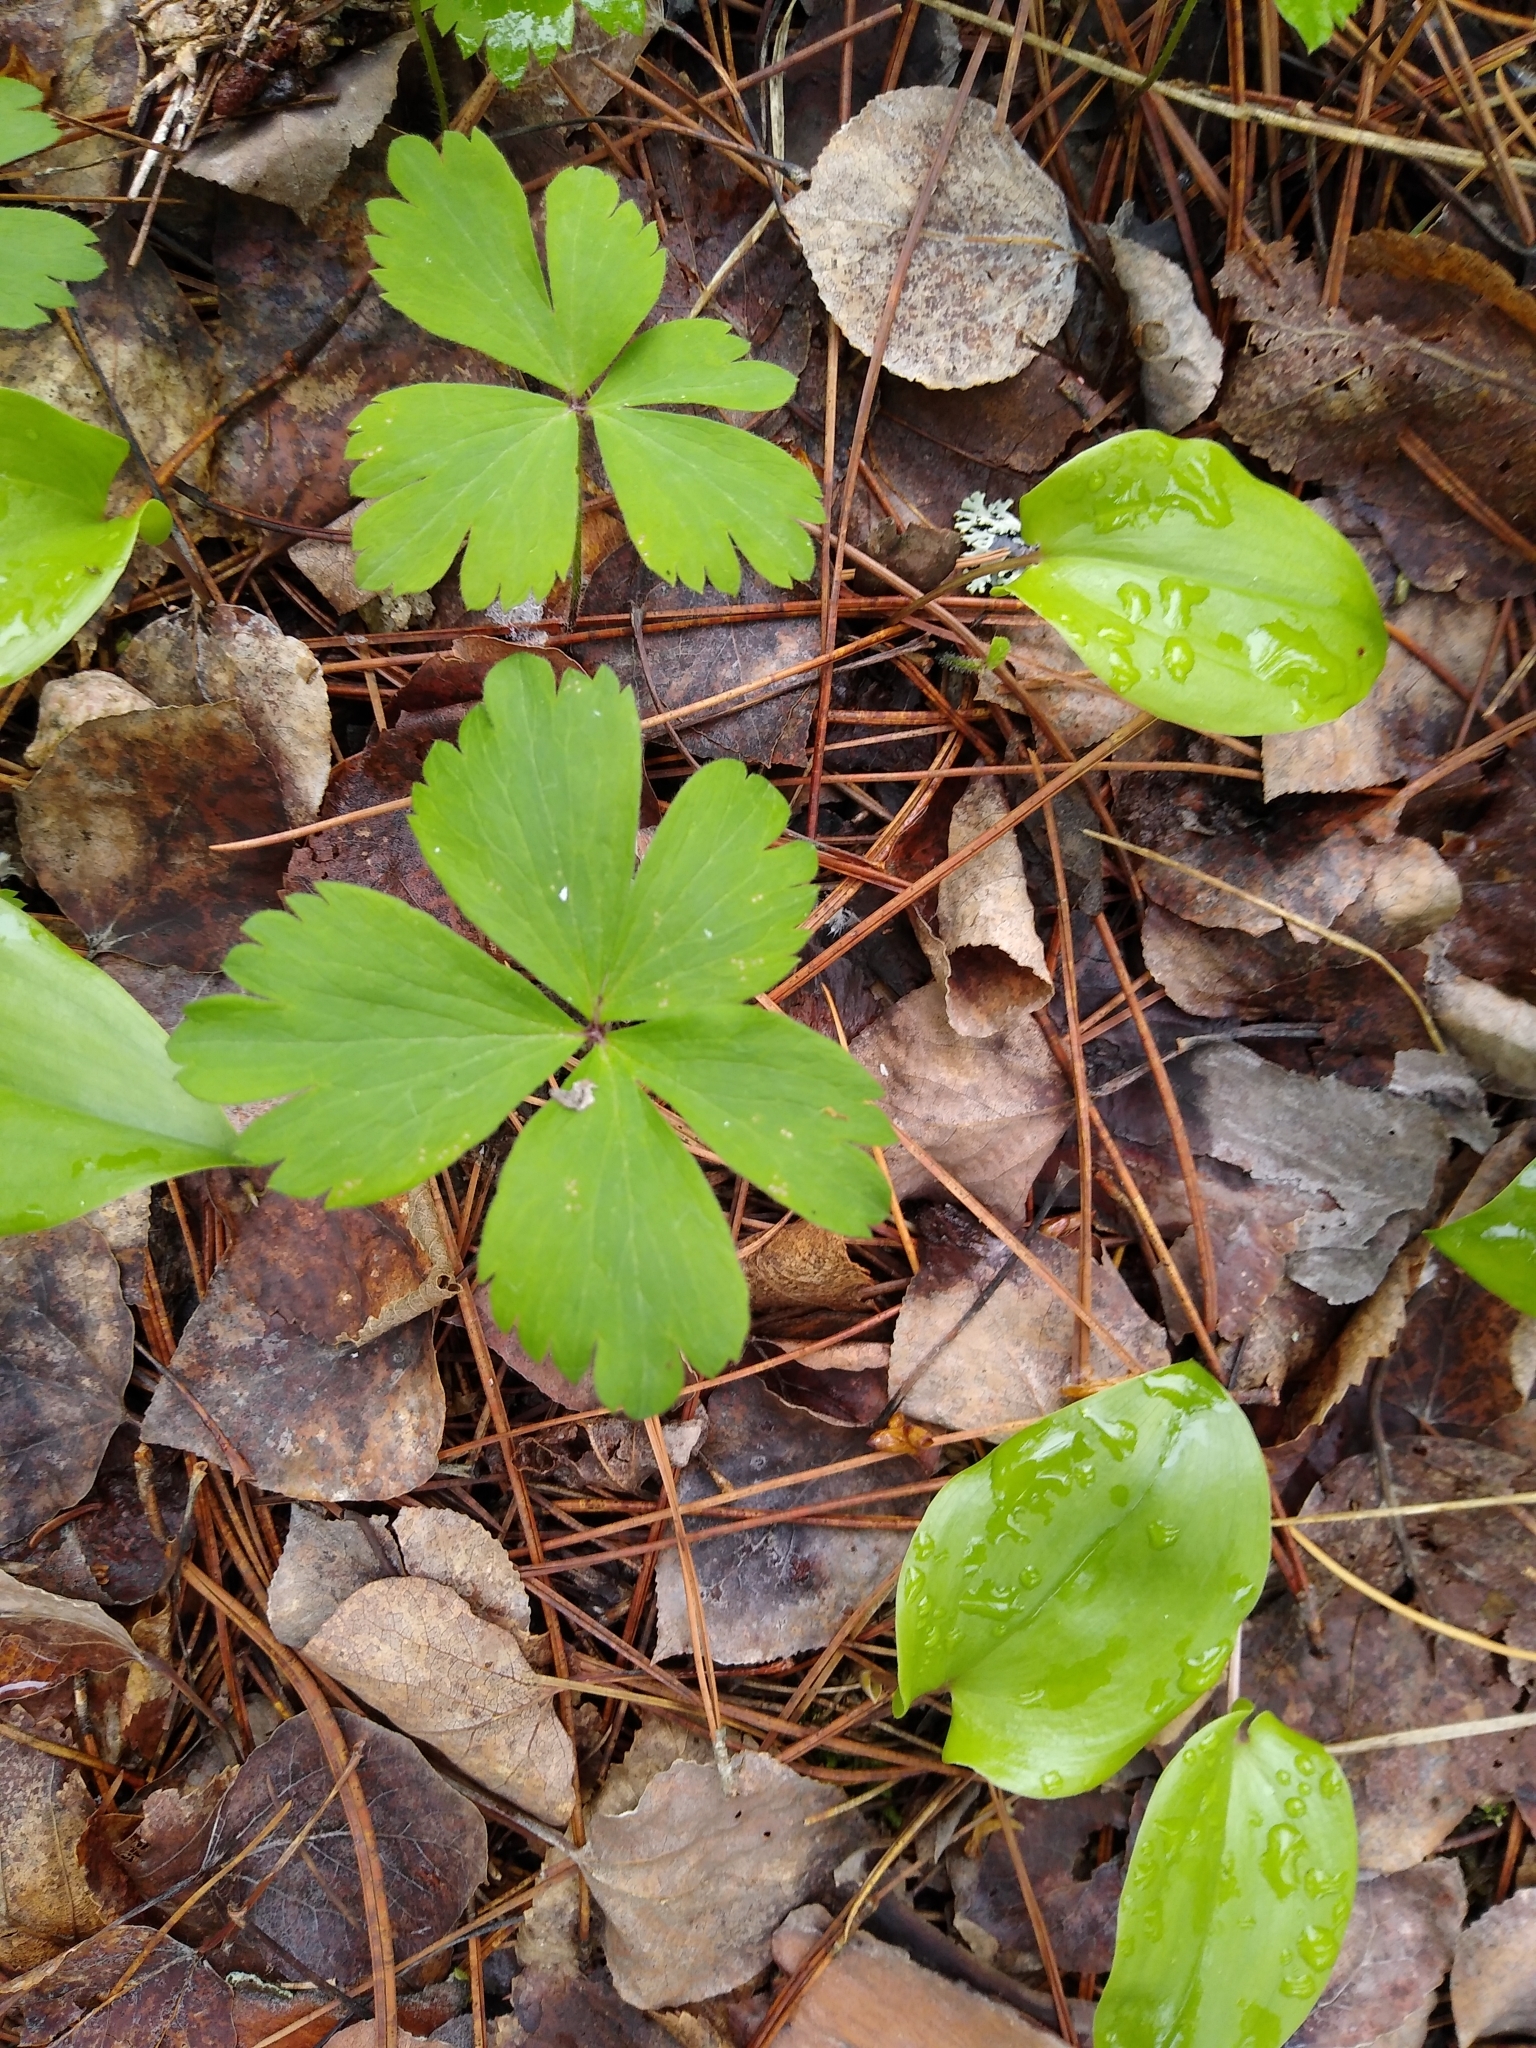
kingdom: Plantae
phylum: Tracheophyta
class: Magnoliopsida
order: Ranunculales
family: Ranunculaceae
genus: Anemone
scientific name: Anemone quinquefolia
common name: Wood anemone
